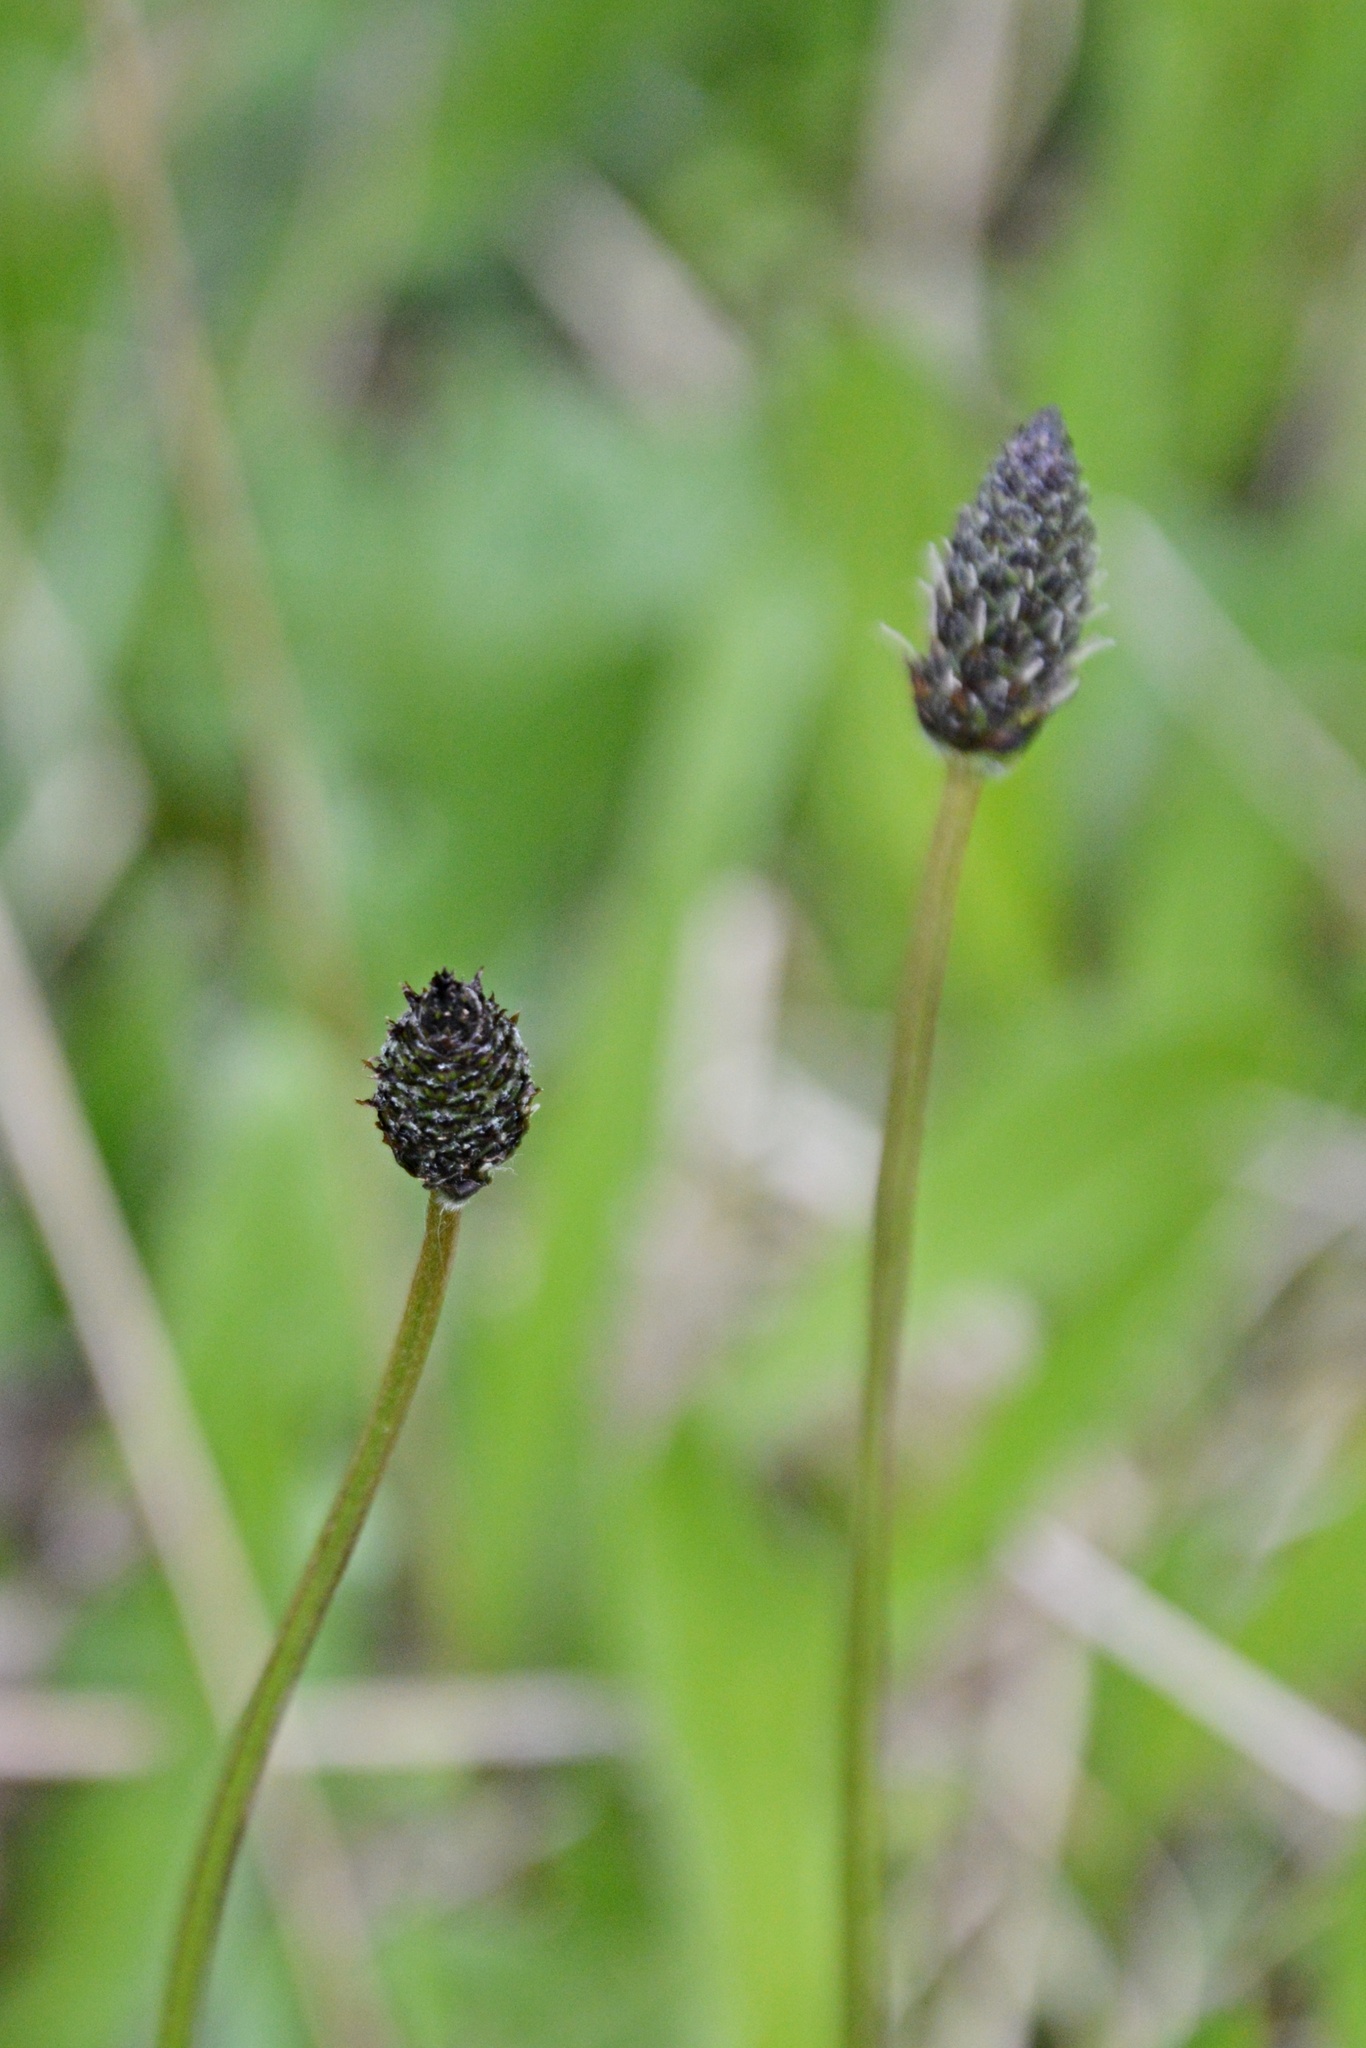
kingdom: Plantae
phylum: Tracheophyta
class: Magnoliopsida
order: Lamiales
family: Plantaginaceae
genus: Plantago
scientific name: Plantago lanceolata
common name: Ribwort plantain
